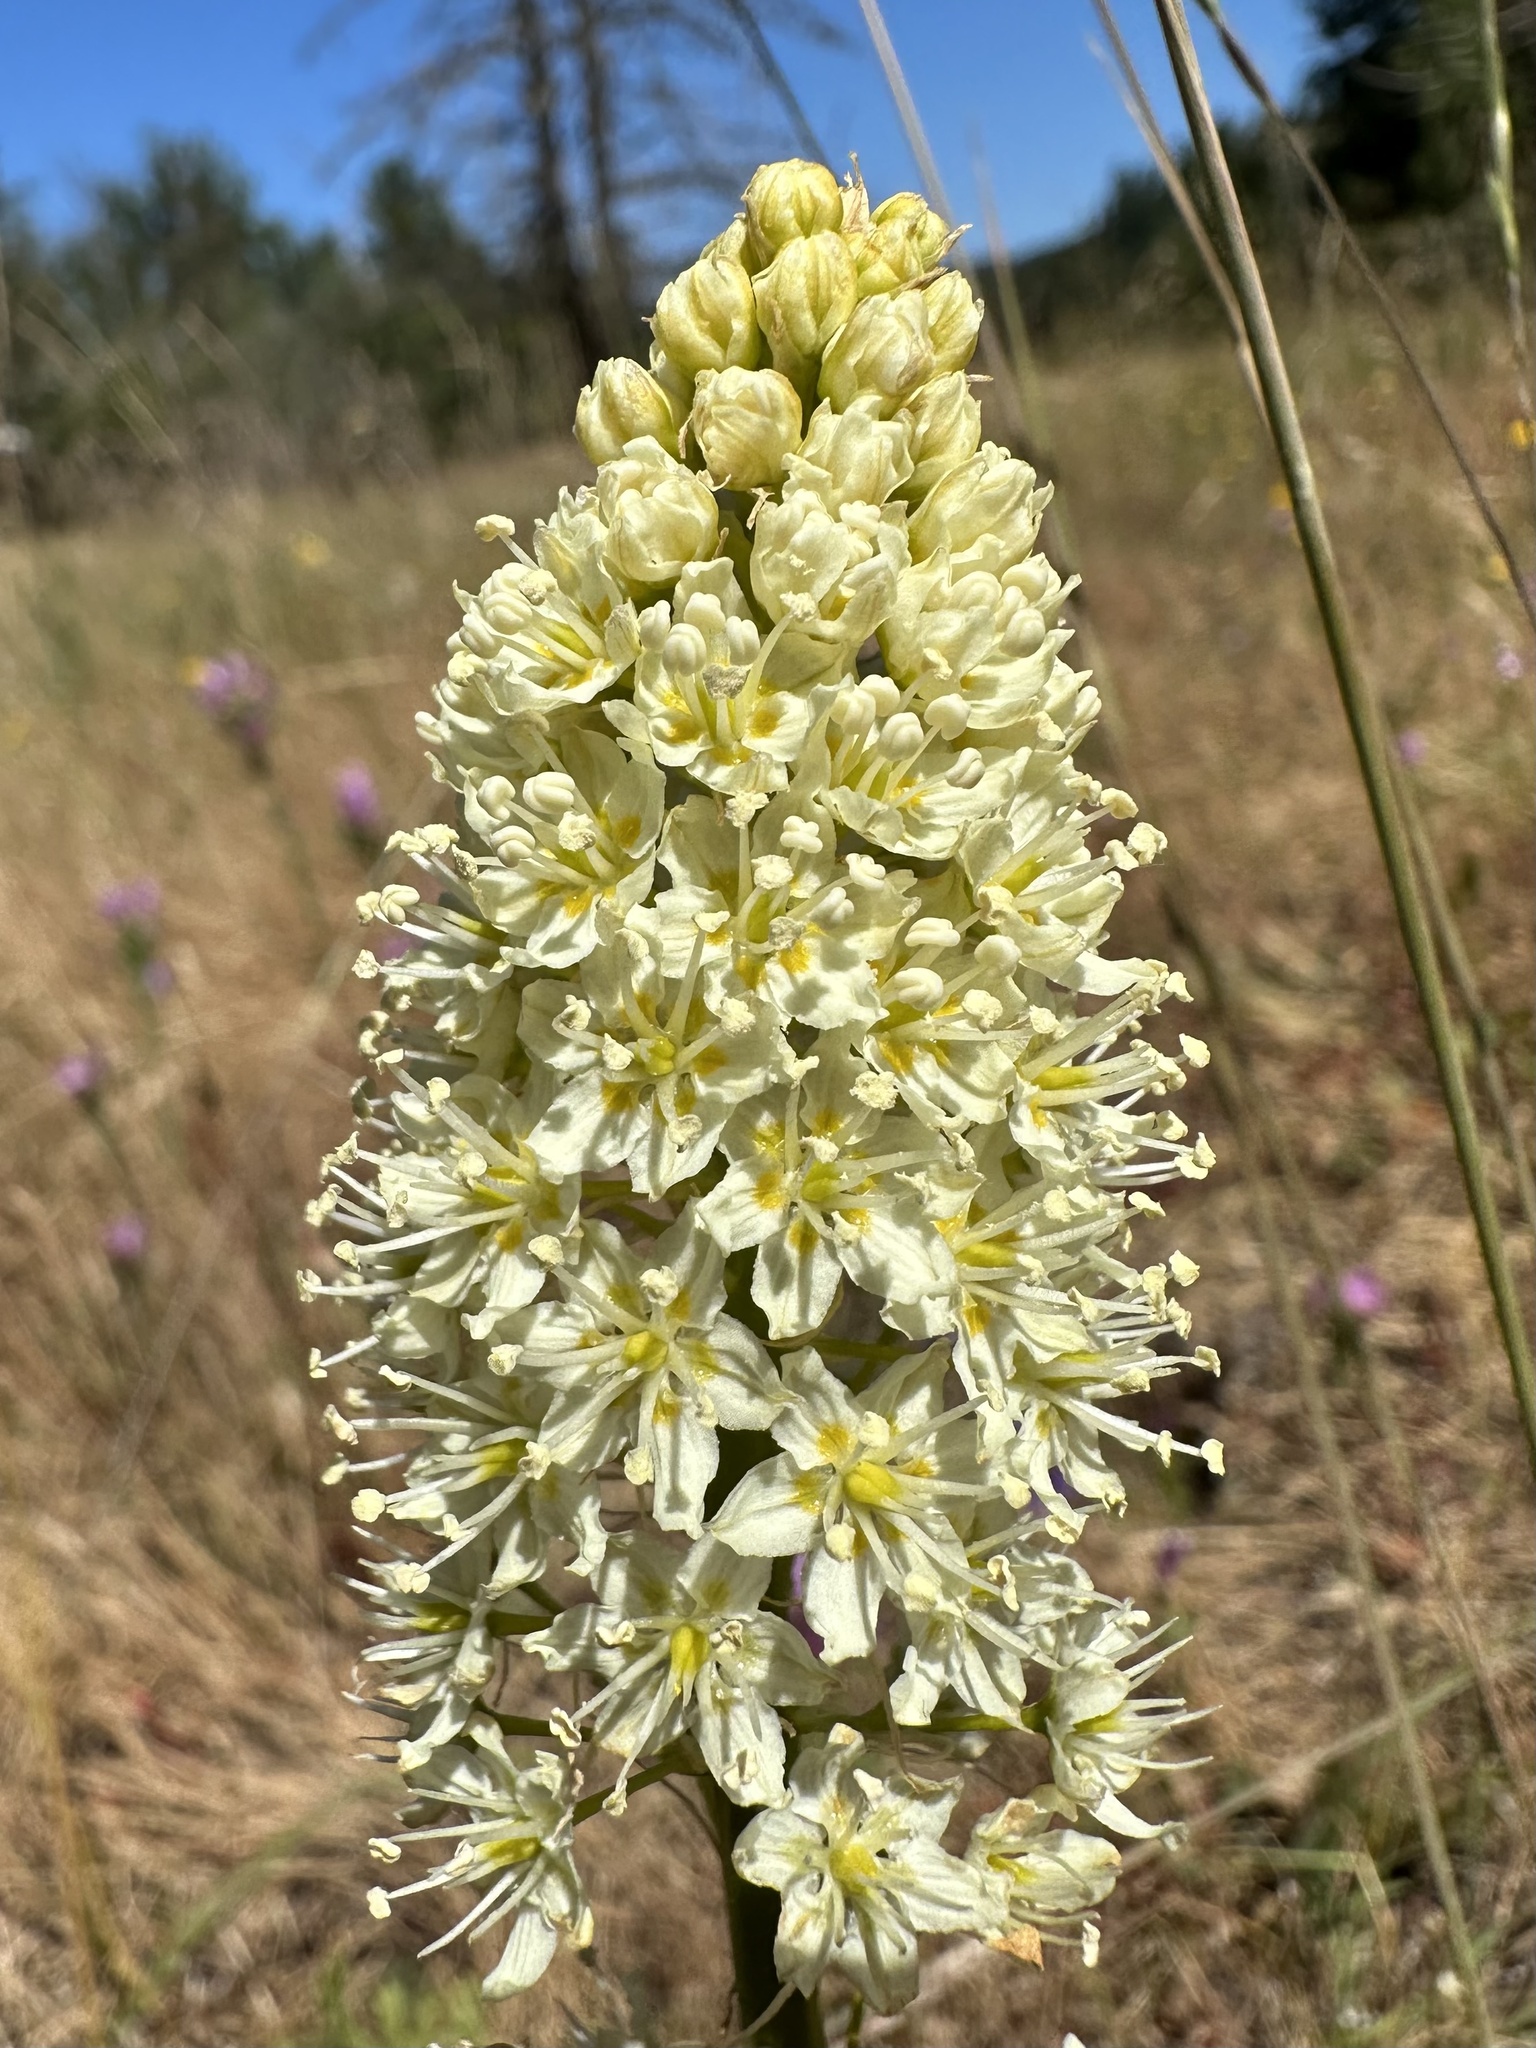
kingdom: Plantae
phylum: Tracheophyta
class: Liliopsida
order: Liliales
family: Melanthiaceae
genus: Toxicoscordion
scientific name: Toxicoscordion venenosum
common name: Meadow death camas
